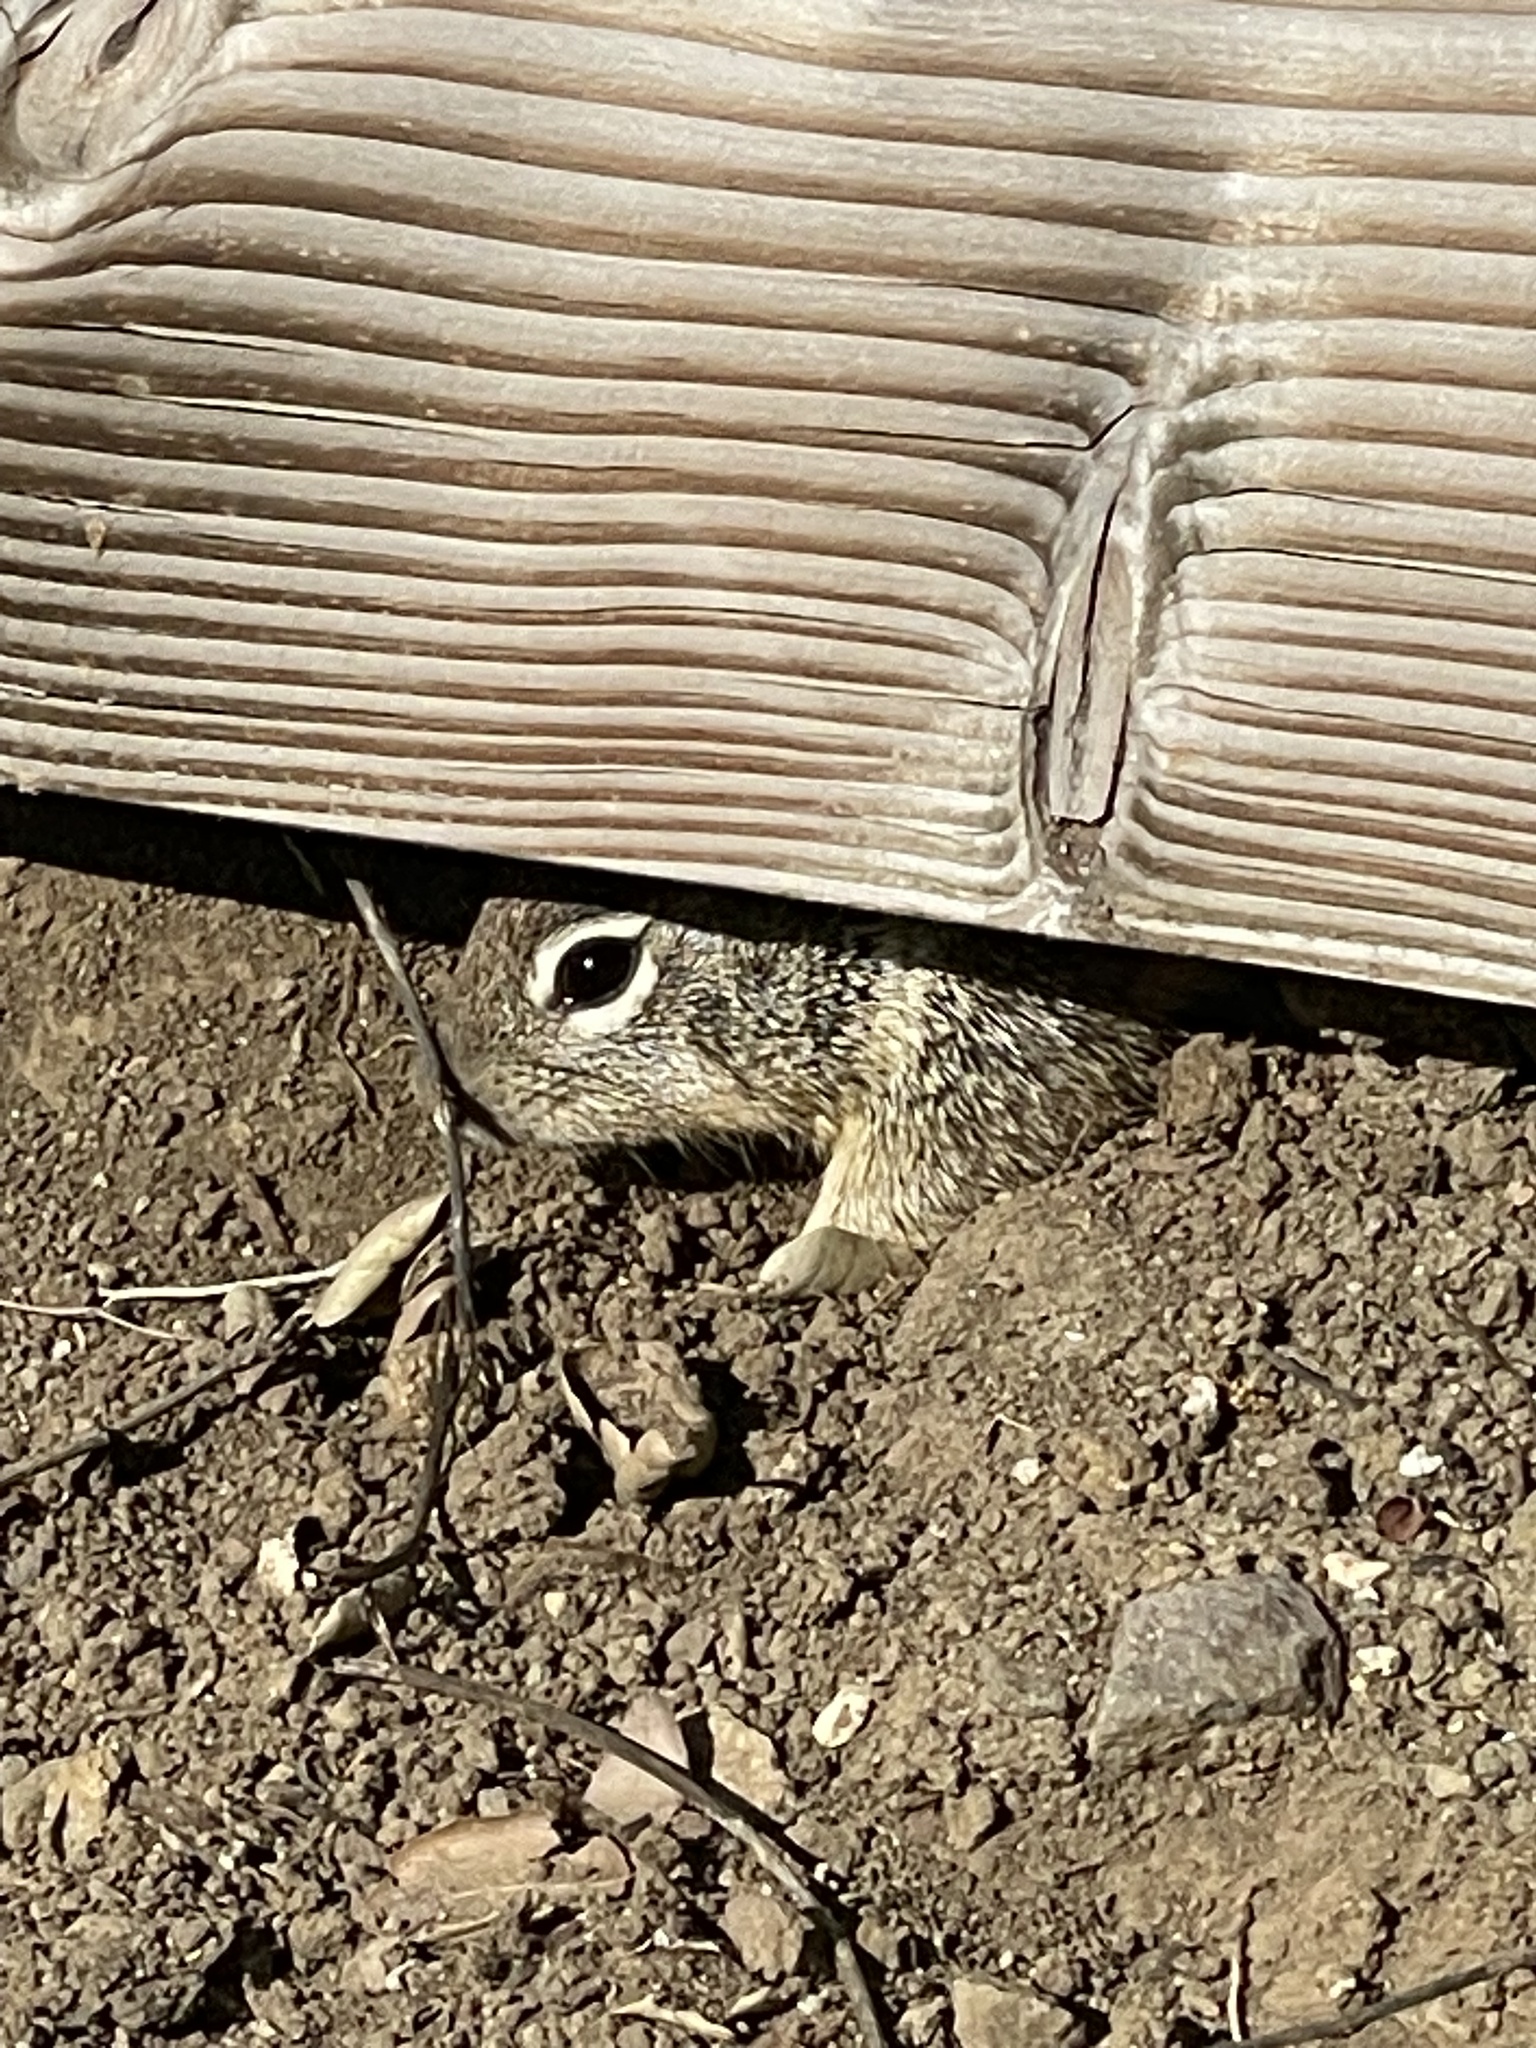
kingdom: Animalia
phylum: Chordata
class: Mammalia
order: Rodentia
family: Sciuridae
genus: Otospermophilus
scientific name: Otospermophilus beecheyi
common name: California ground squirrel
